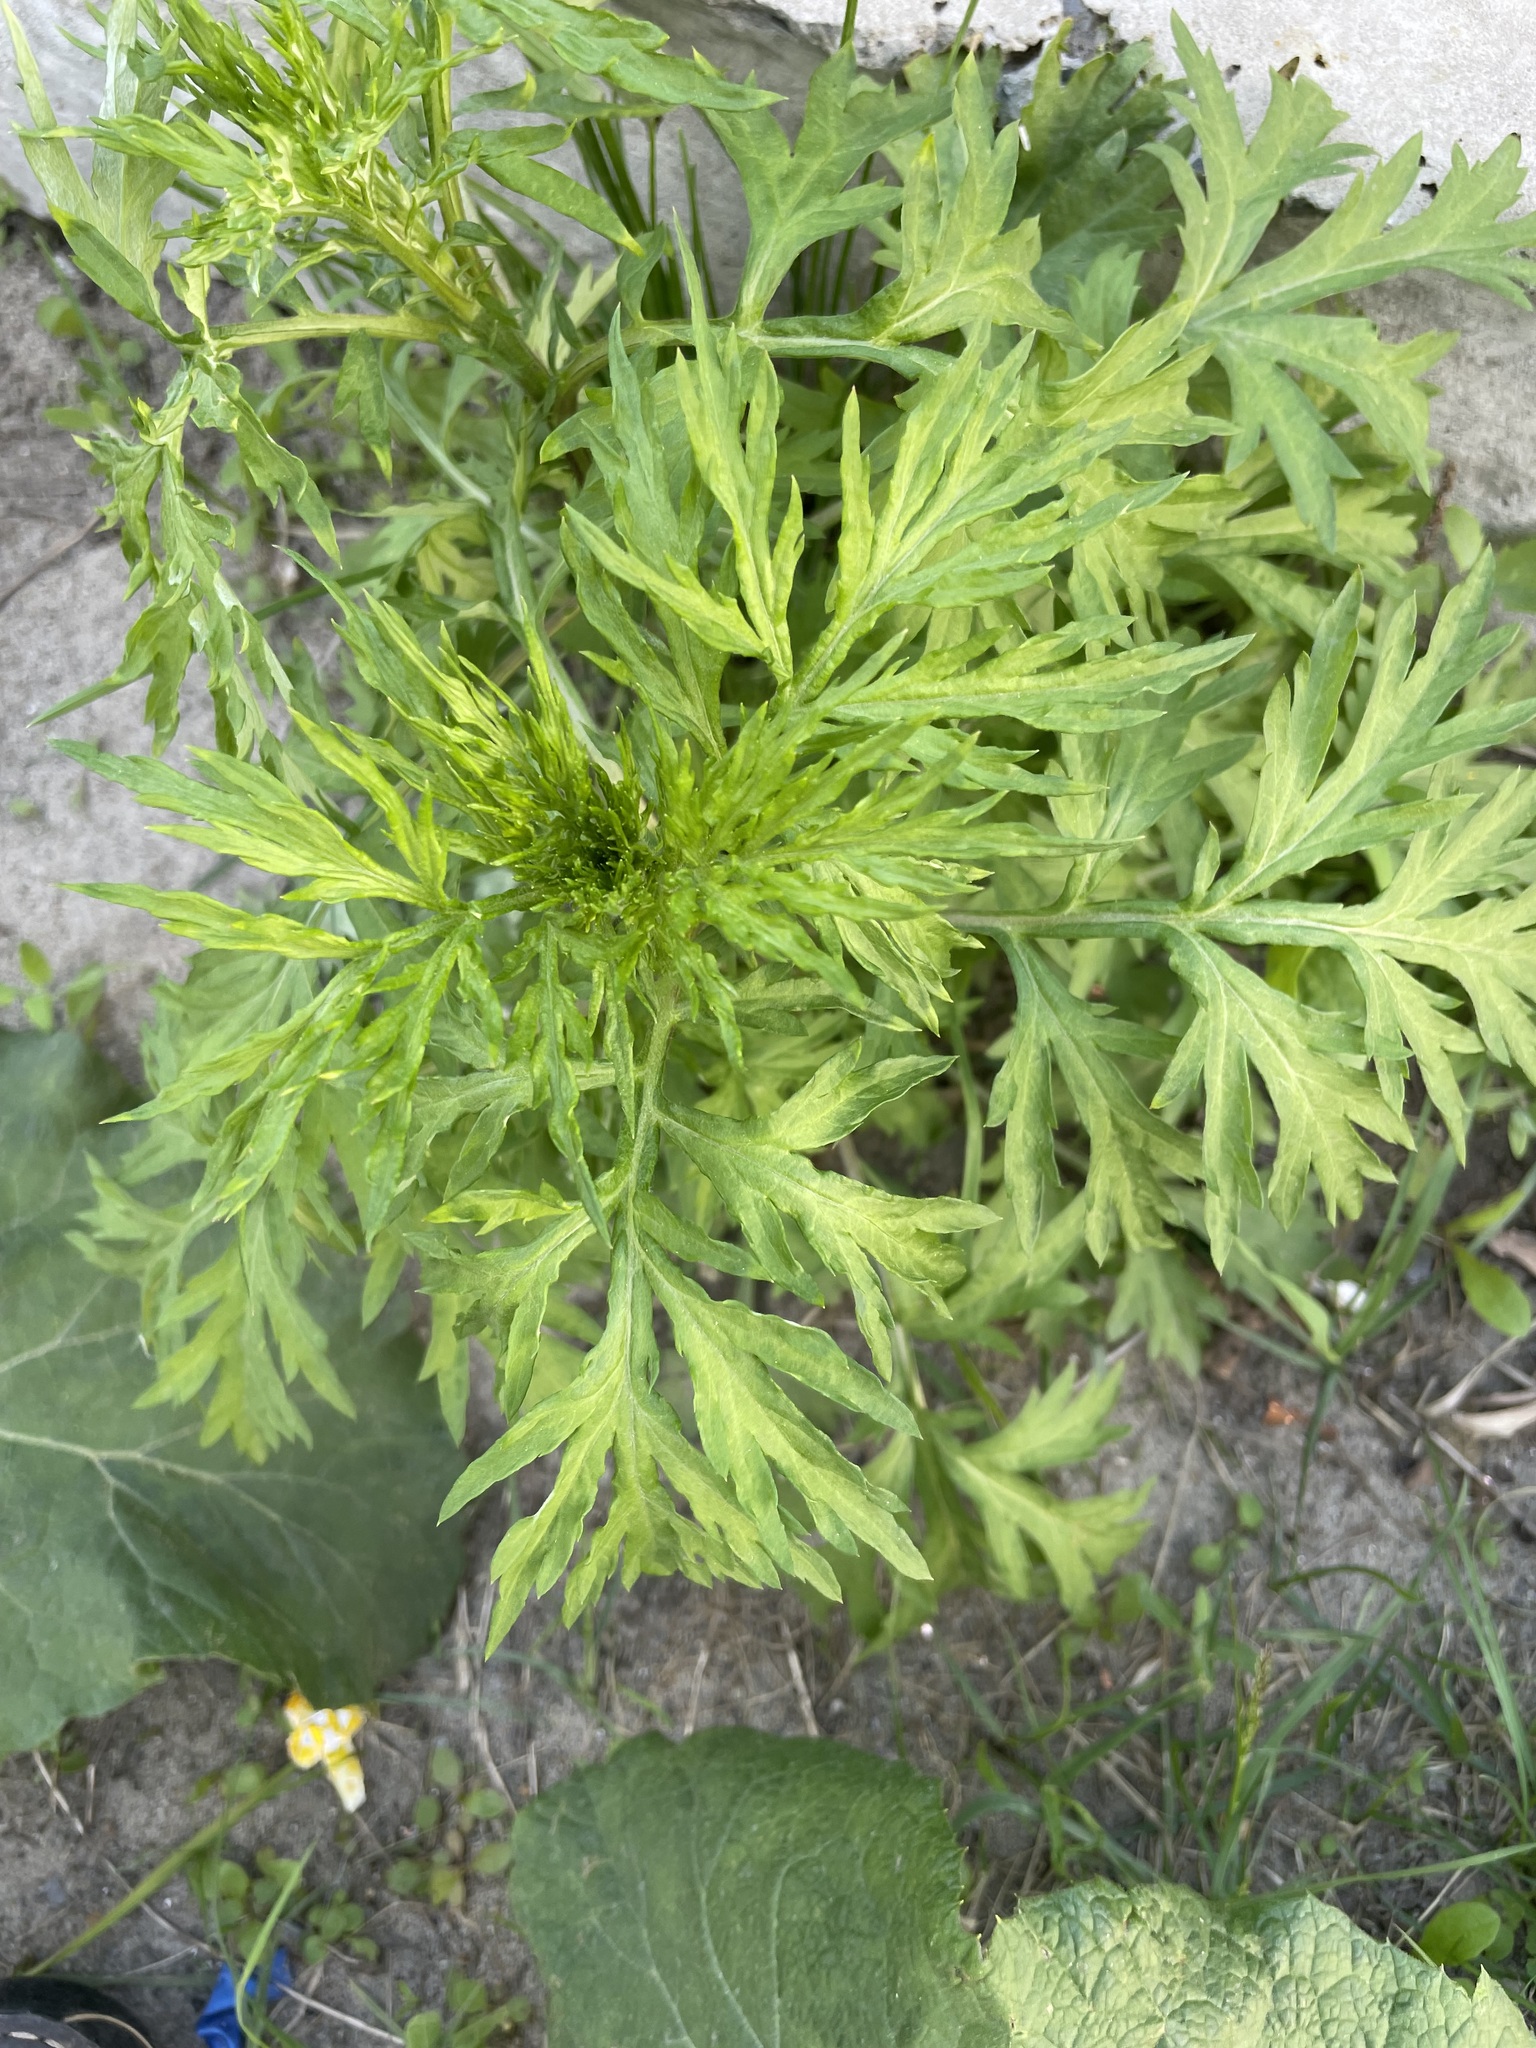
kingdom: Plantae
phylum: Tracheophyta
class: Magnoliopsida
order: Asterales
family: Asteraceae
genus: Artemisia
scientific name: Artemisia vulgaris
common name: Mugwort
